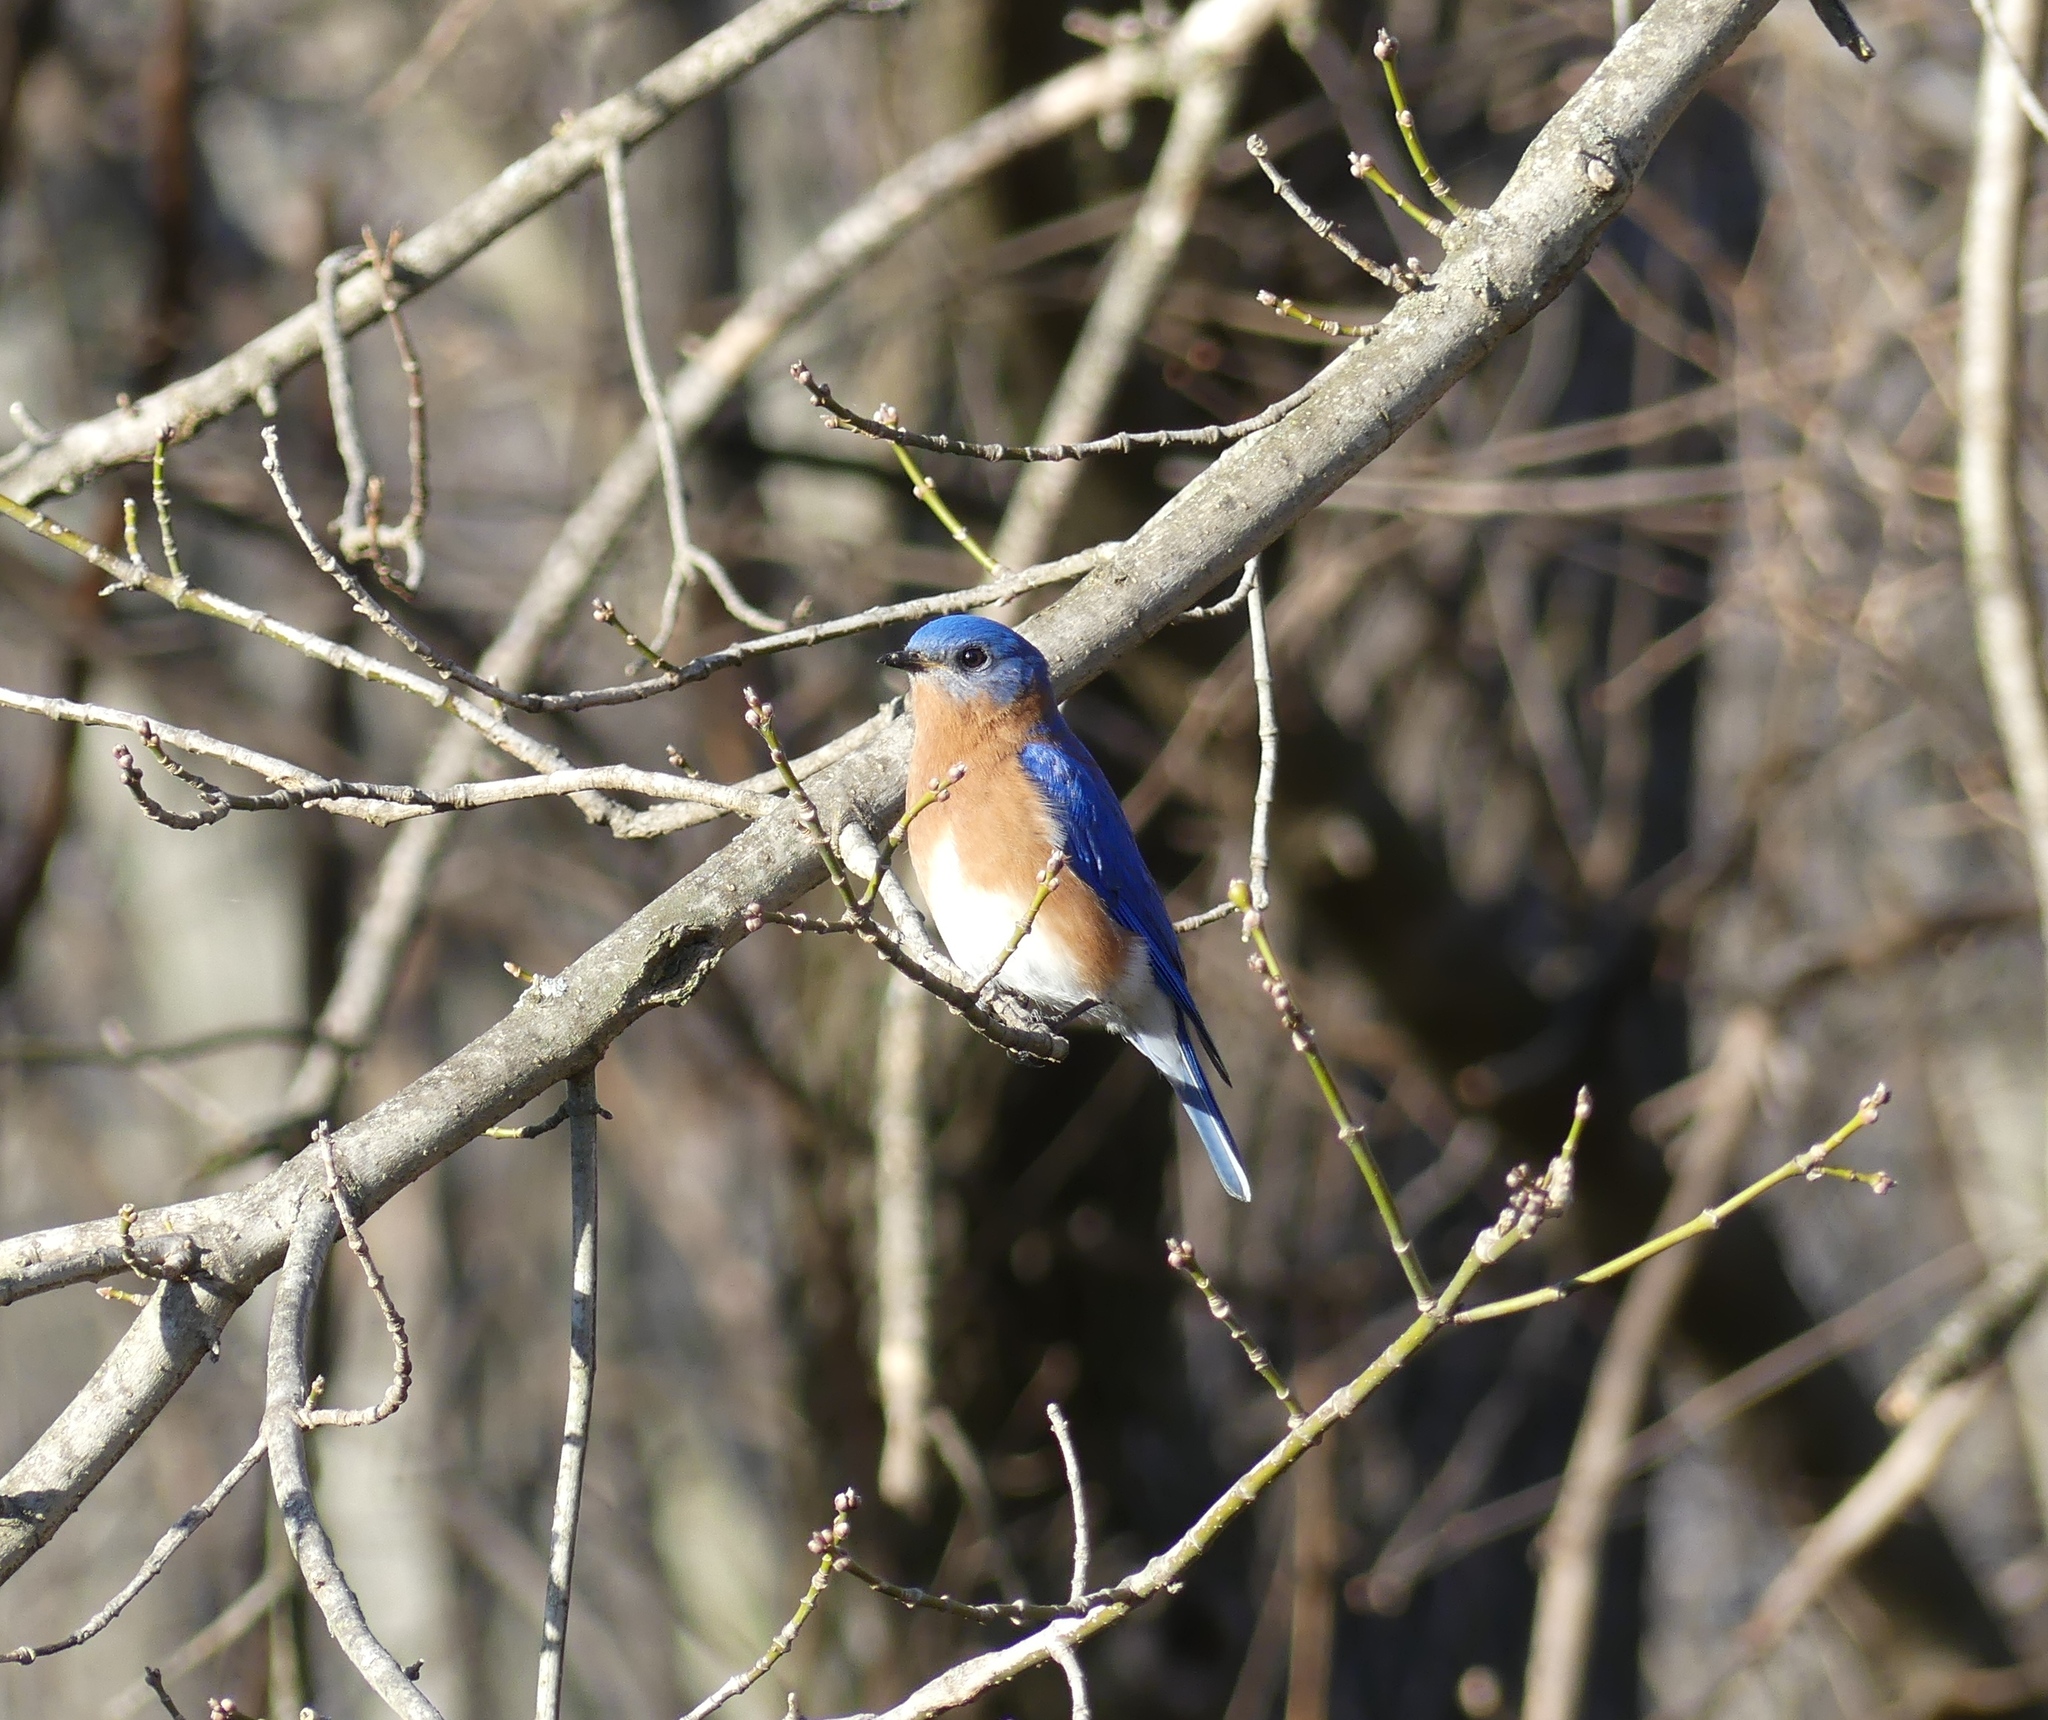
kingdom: Animalia
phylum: Chordata
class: Aves
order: Passeriformes
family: Turdidae
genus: Sialia
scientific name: Sialia sialis
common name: Eastern bluebird
